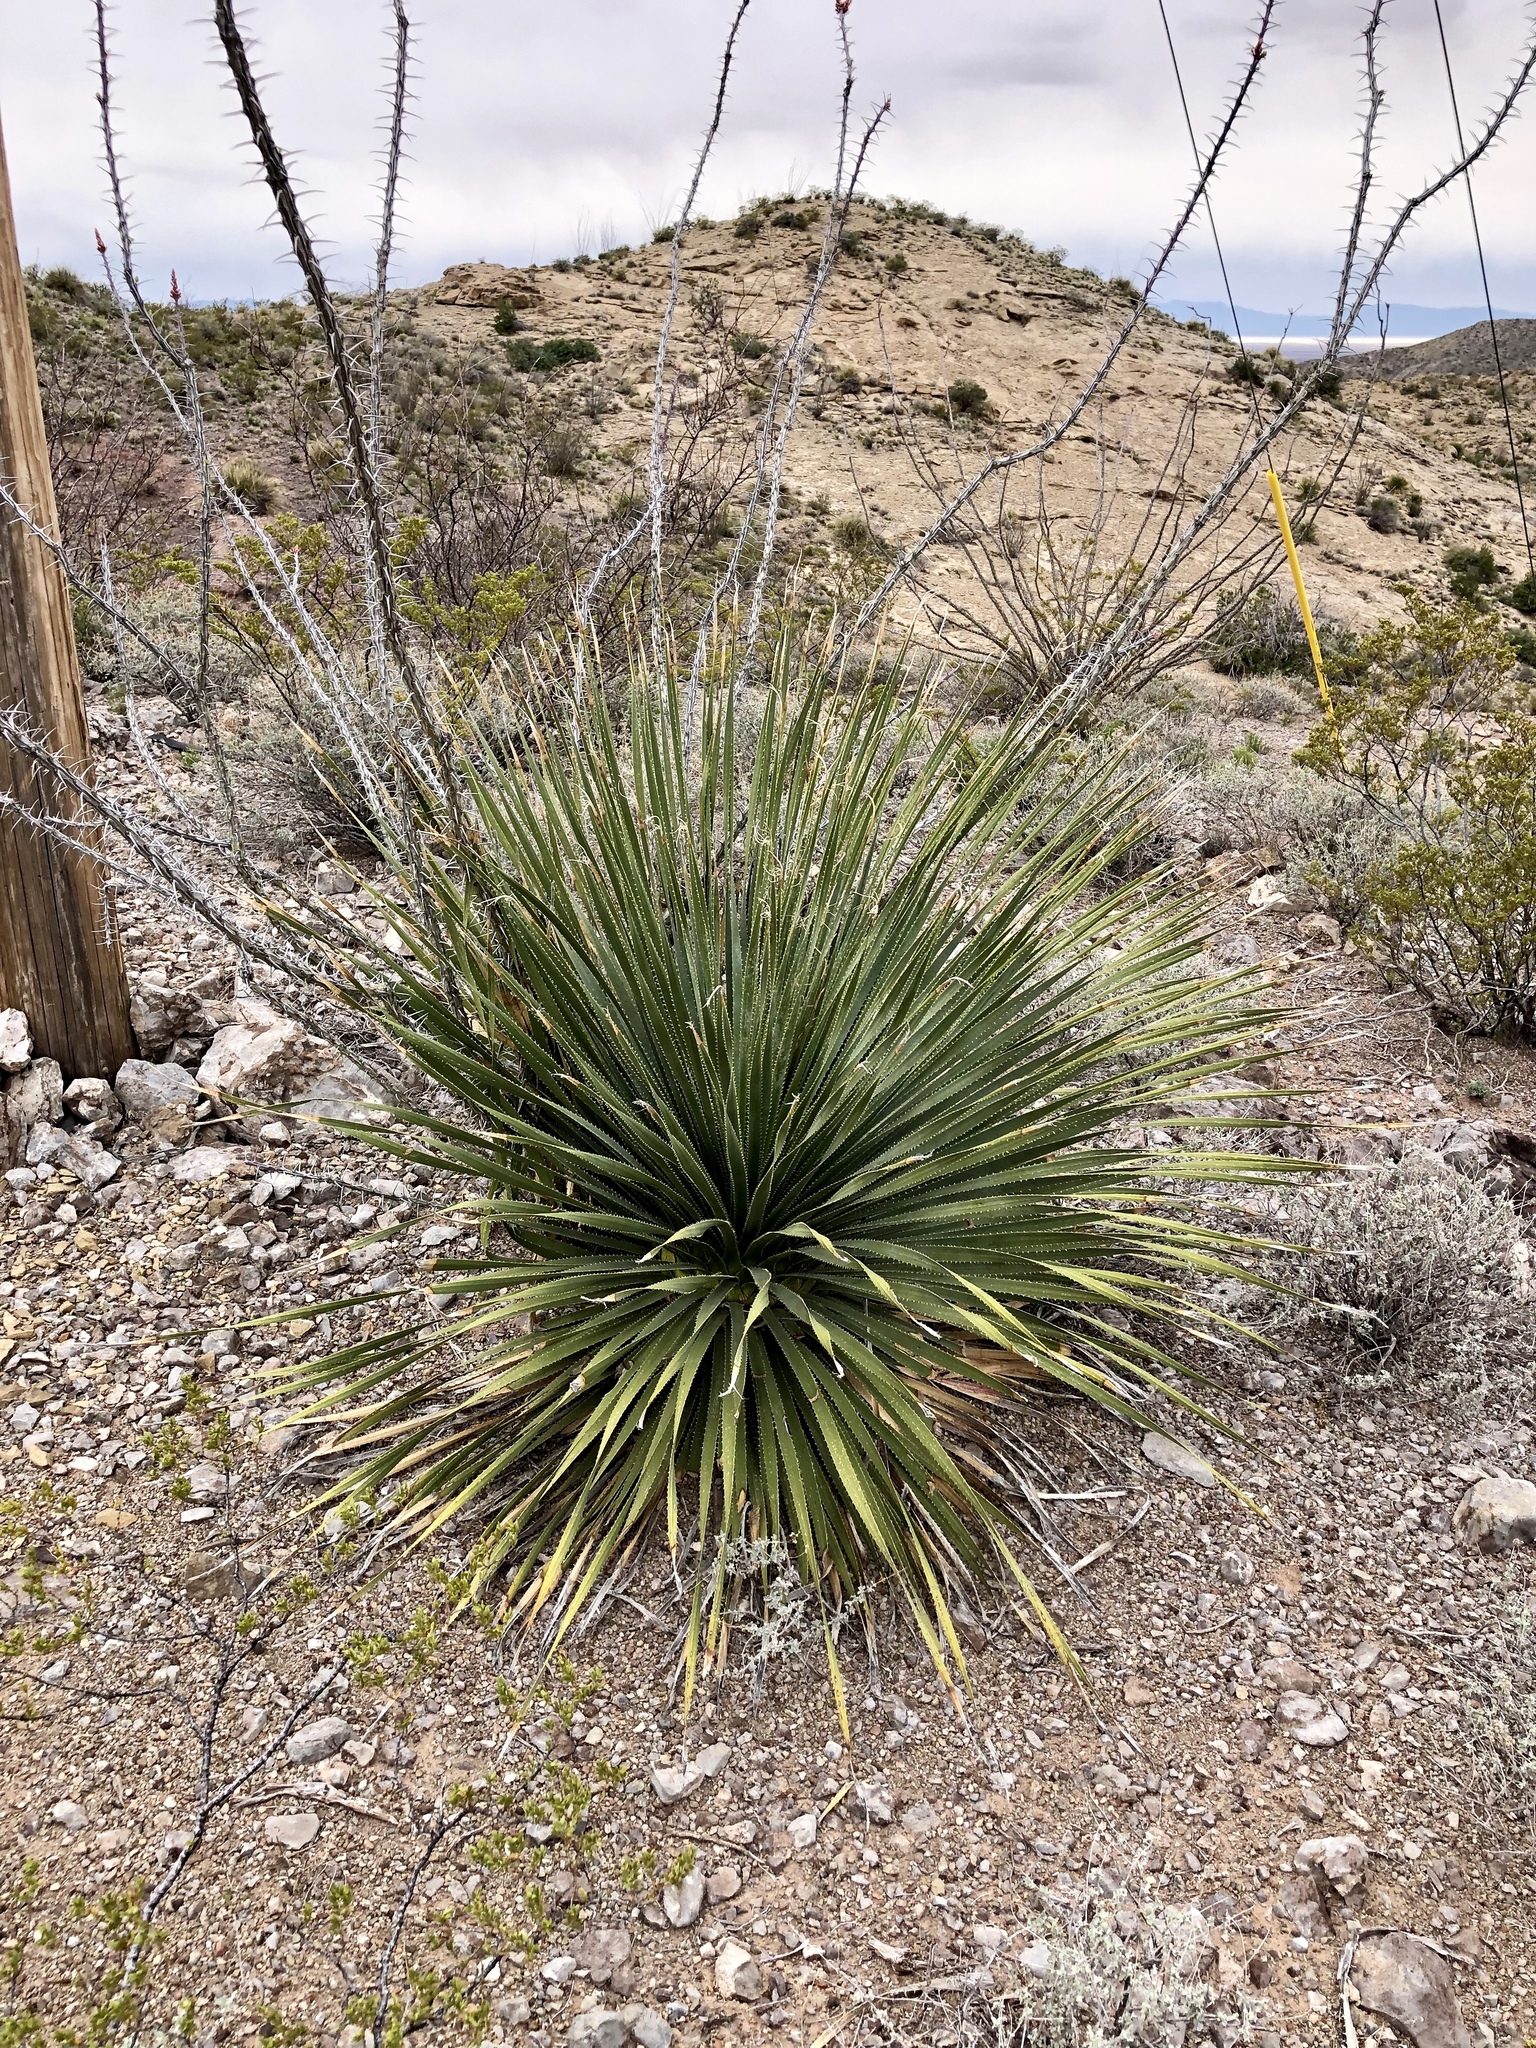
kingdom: Plantae
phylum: Tracheophyta
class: Liliopsida
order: Asparagales
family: Asparagaceae
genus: Dasylirion
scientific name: Dasylirion wheeleri
